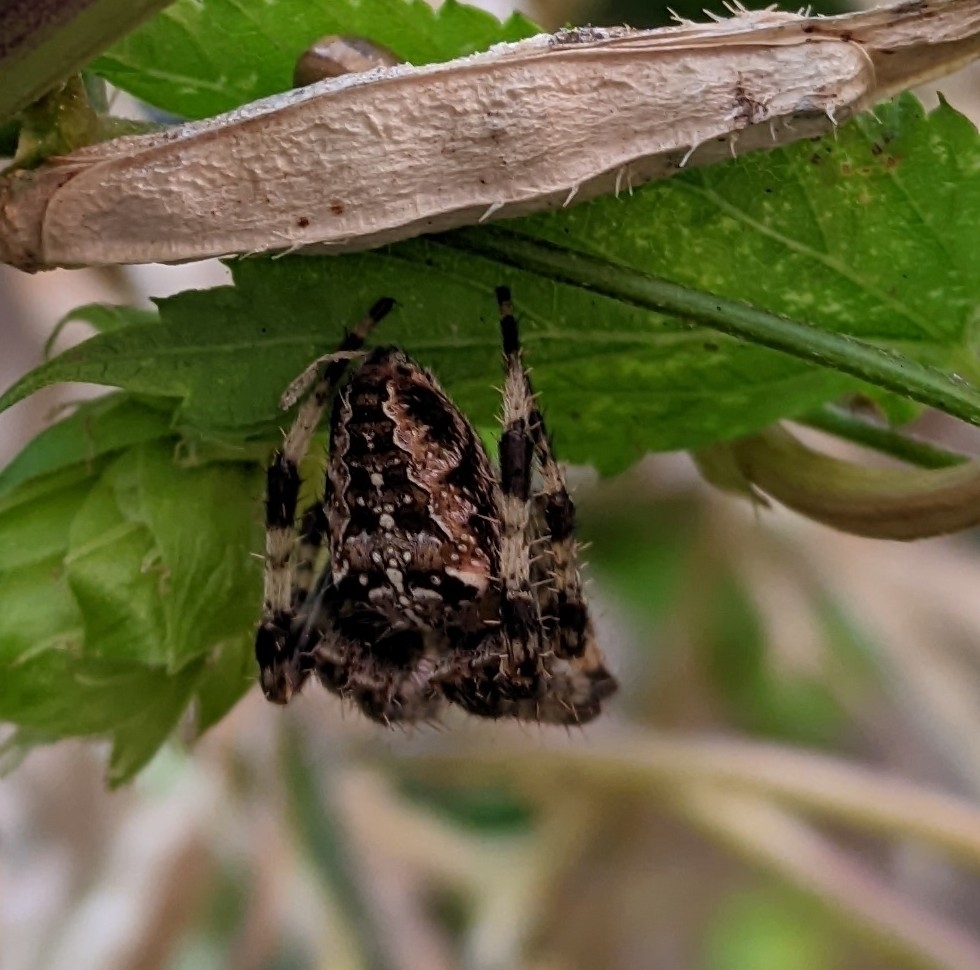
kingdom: Animalia
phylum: Arthropoda
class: Arachnida
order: Araneae
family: Araneidae
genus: Araneus
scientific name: Araneus diadematus
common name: Cross orbweaver
